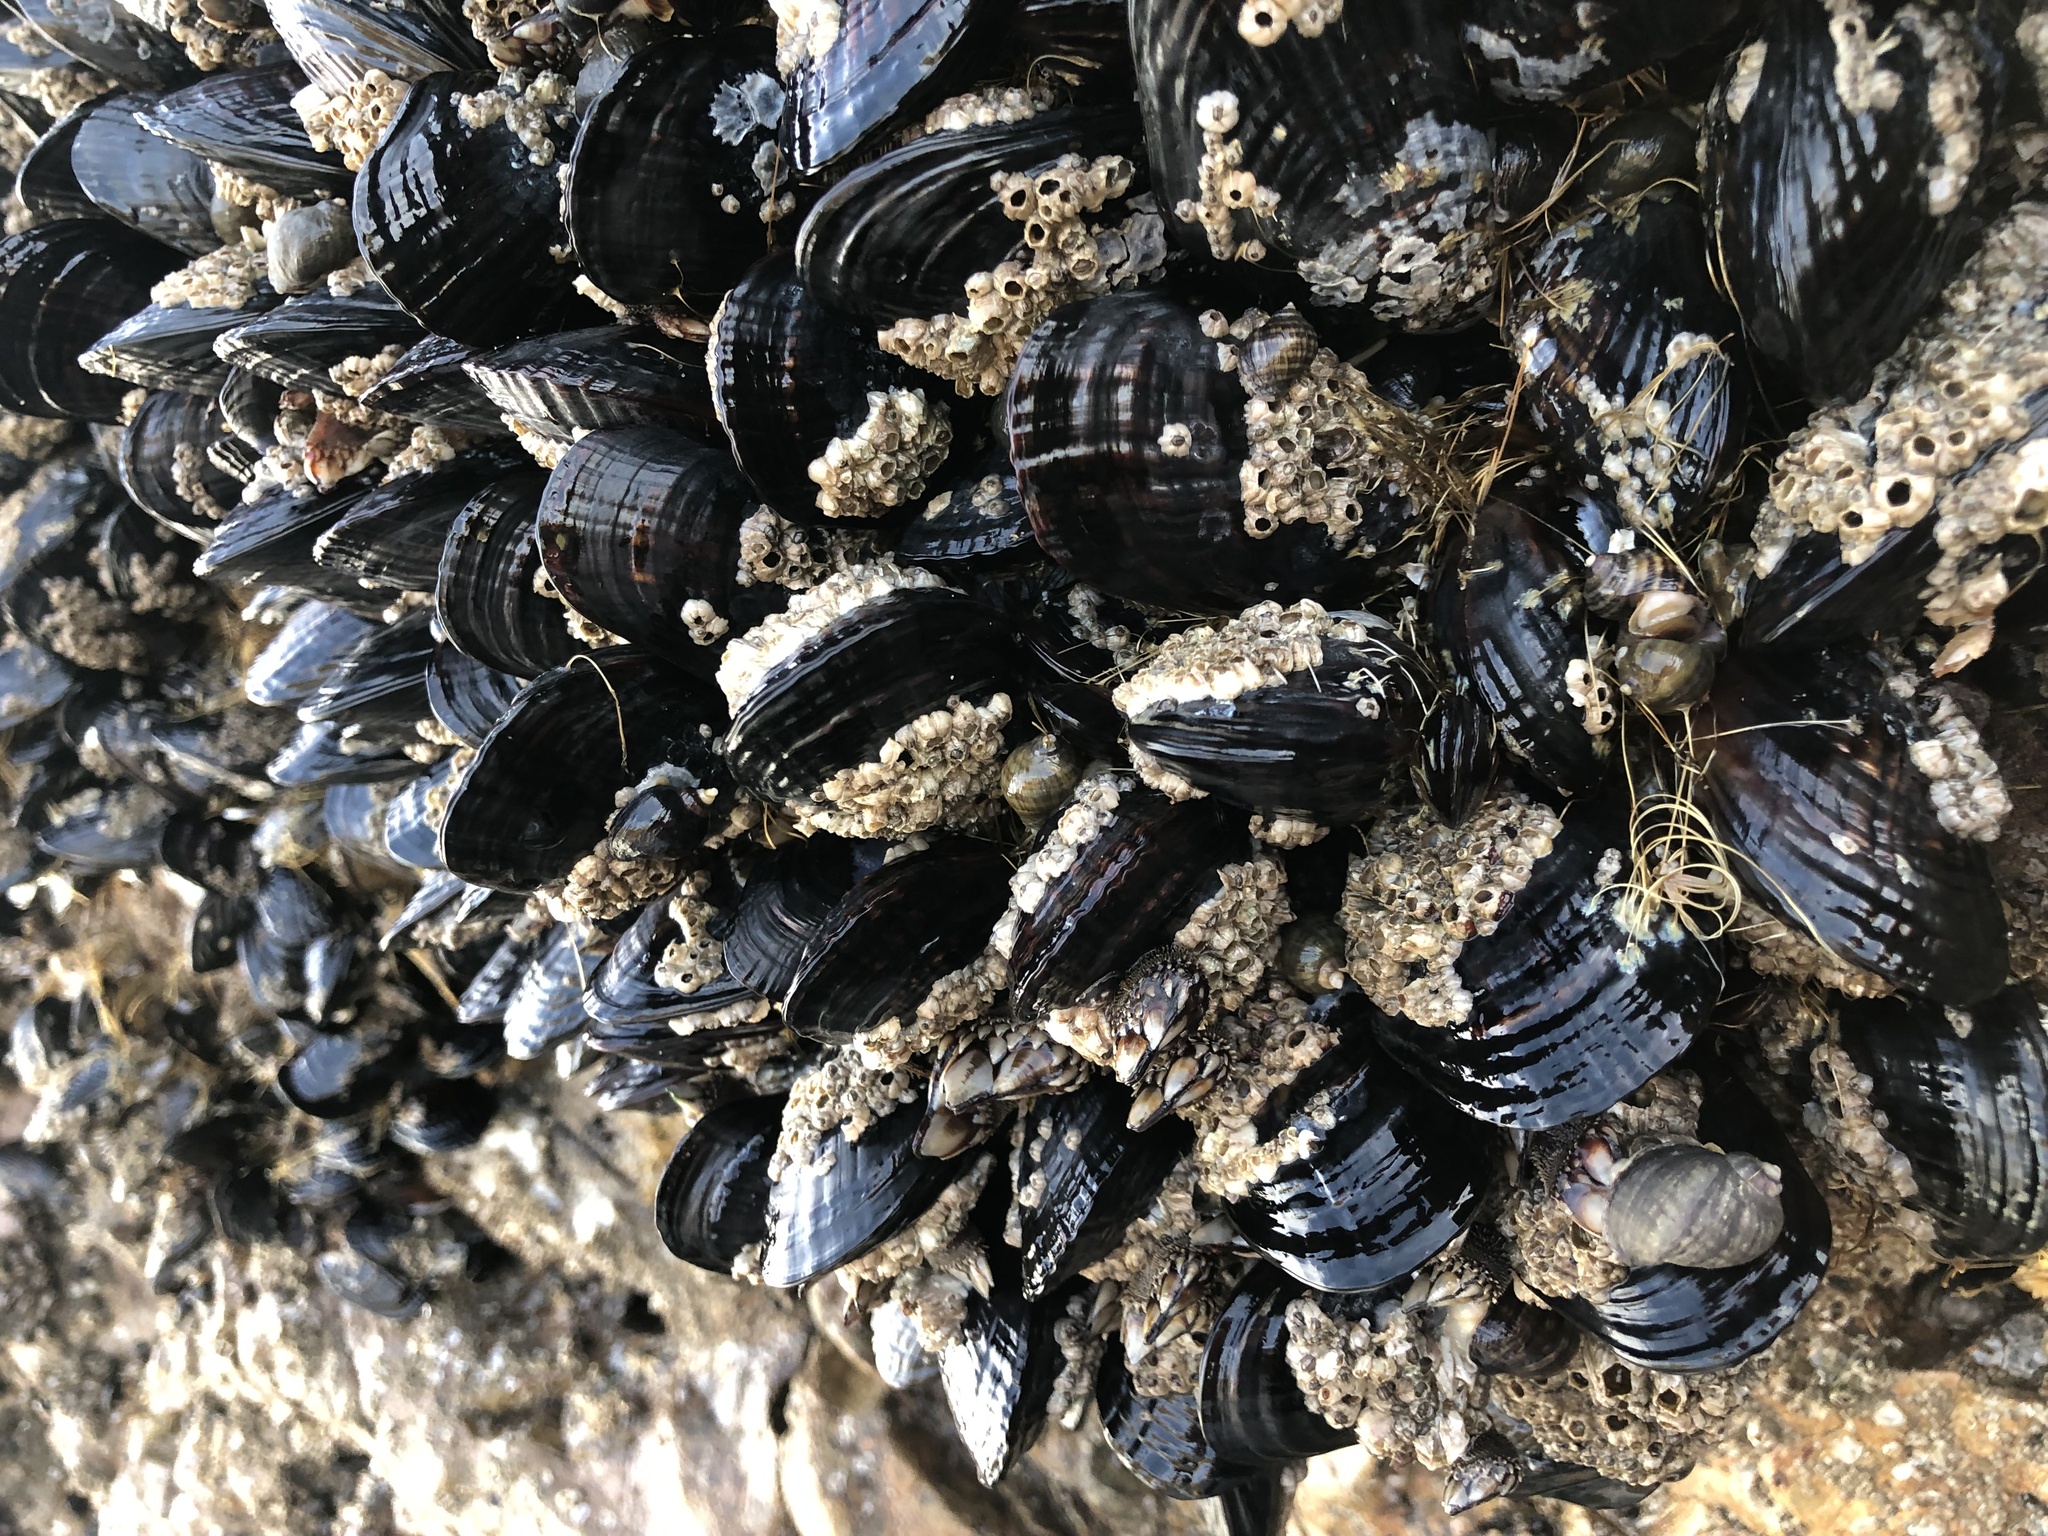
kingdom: Animalia
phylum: Mollusca
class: Bivalvia
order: Mytilida
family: Mytilidae
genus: Mytilus
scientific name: Mytilus californianus
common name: California mussel
